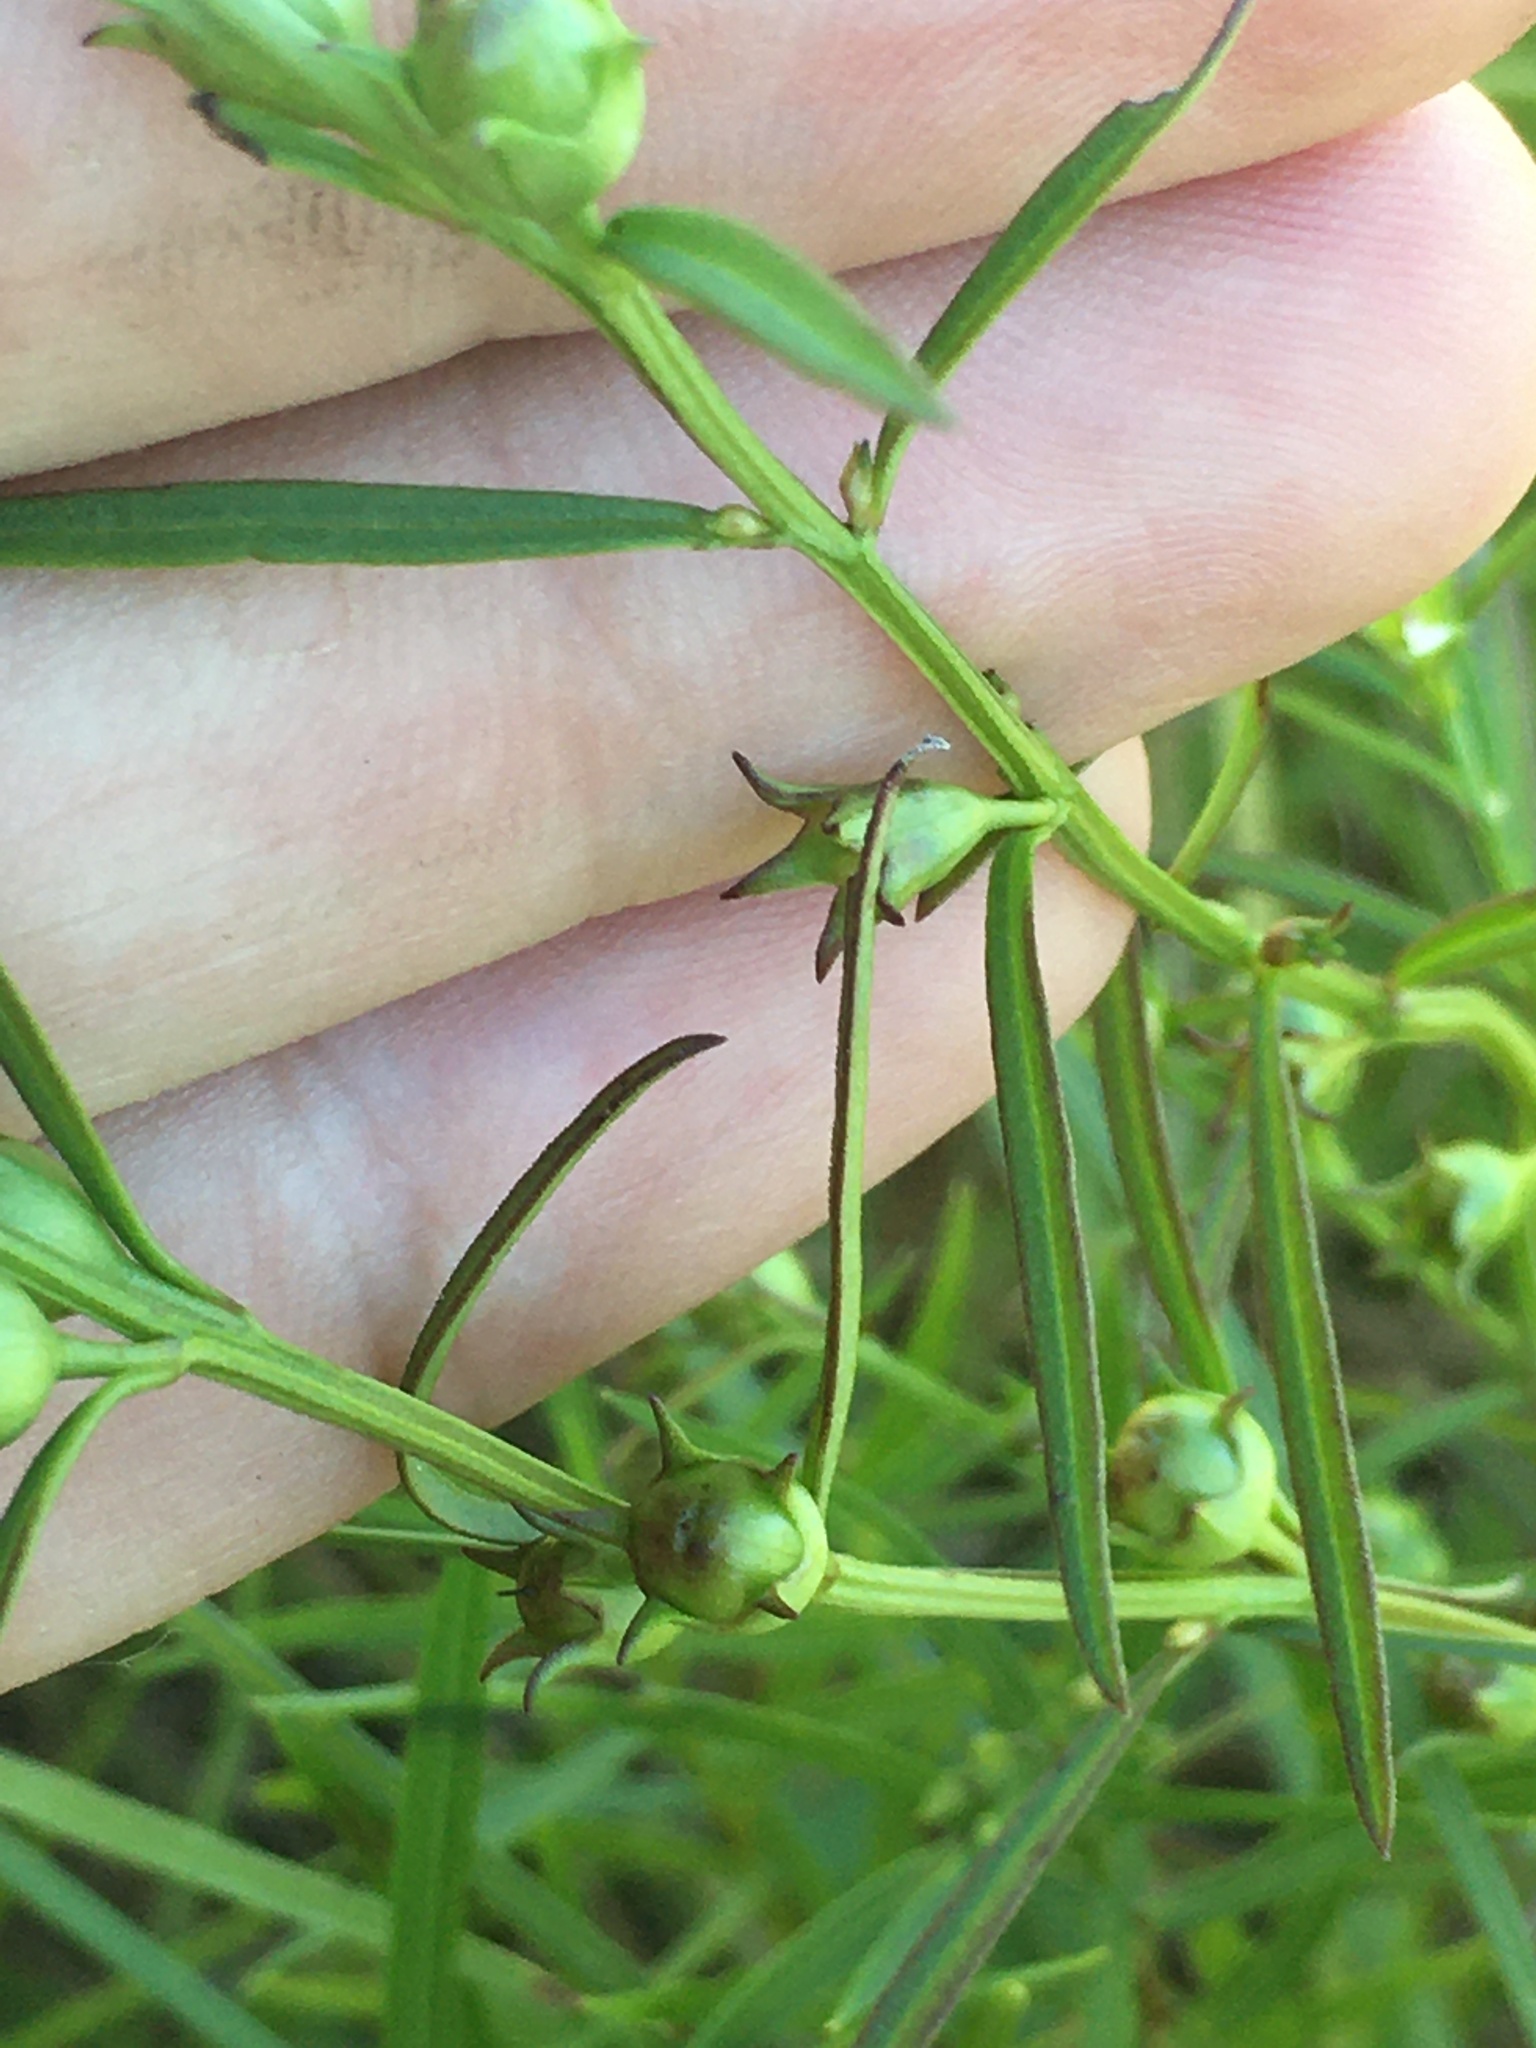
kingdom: Plantae
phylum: Tracheophyta
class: Magnoliopsida
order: Lamiales
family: Orobanchaceae
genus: Agalinis
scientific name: Agalinis purpurea
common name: Purple false foxglove
